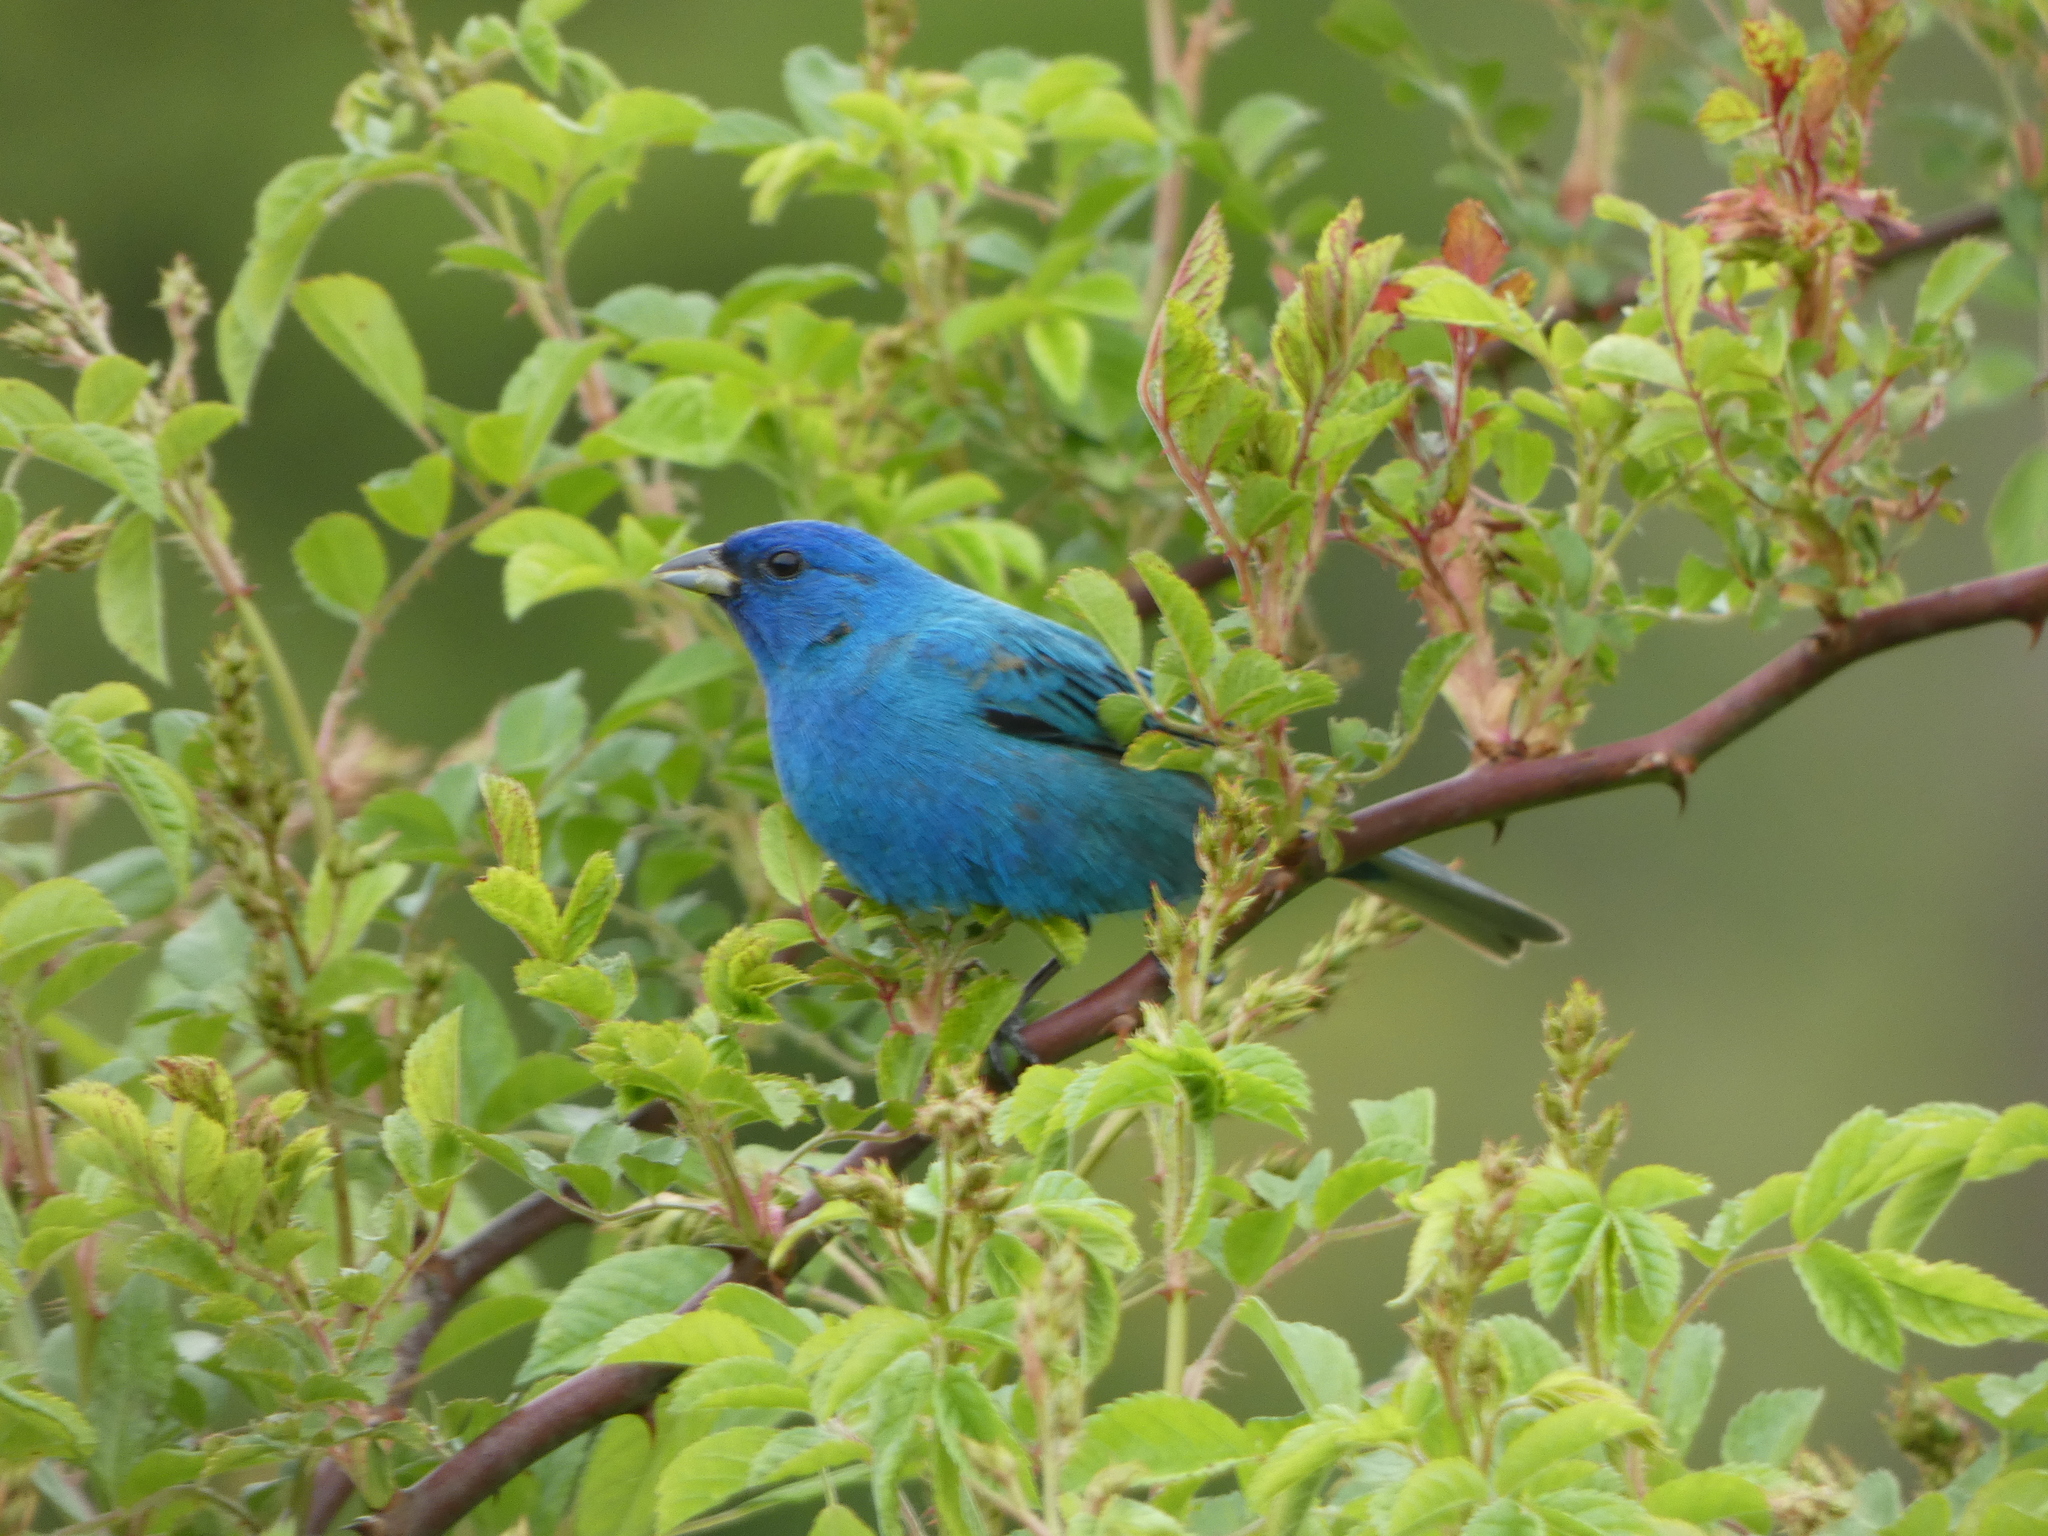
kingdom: Animalia
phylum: Chordata
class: Aves
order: Passeriformes
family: Cardinalidae
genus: Passerina
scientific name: Passerina cyanea
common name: Indigo bunting
